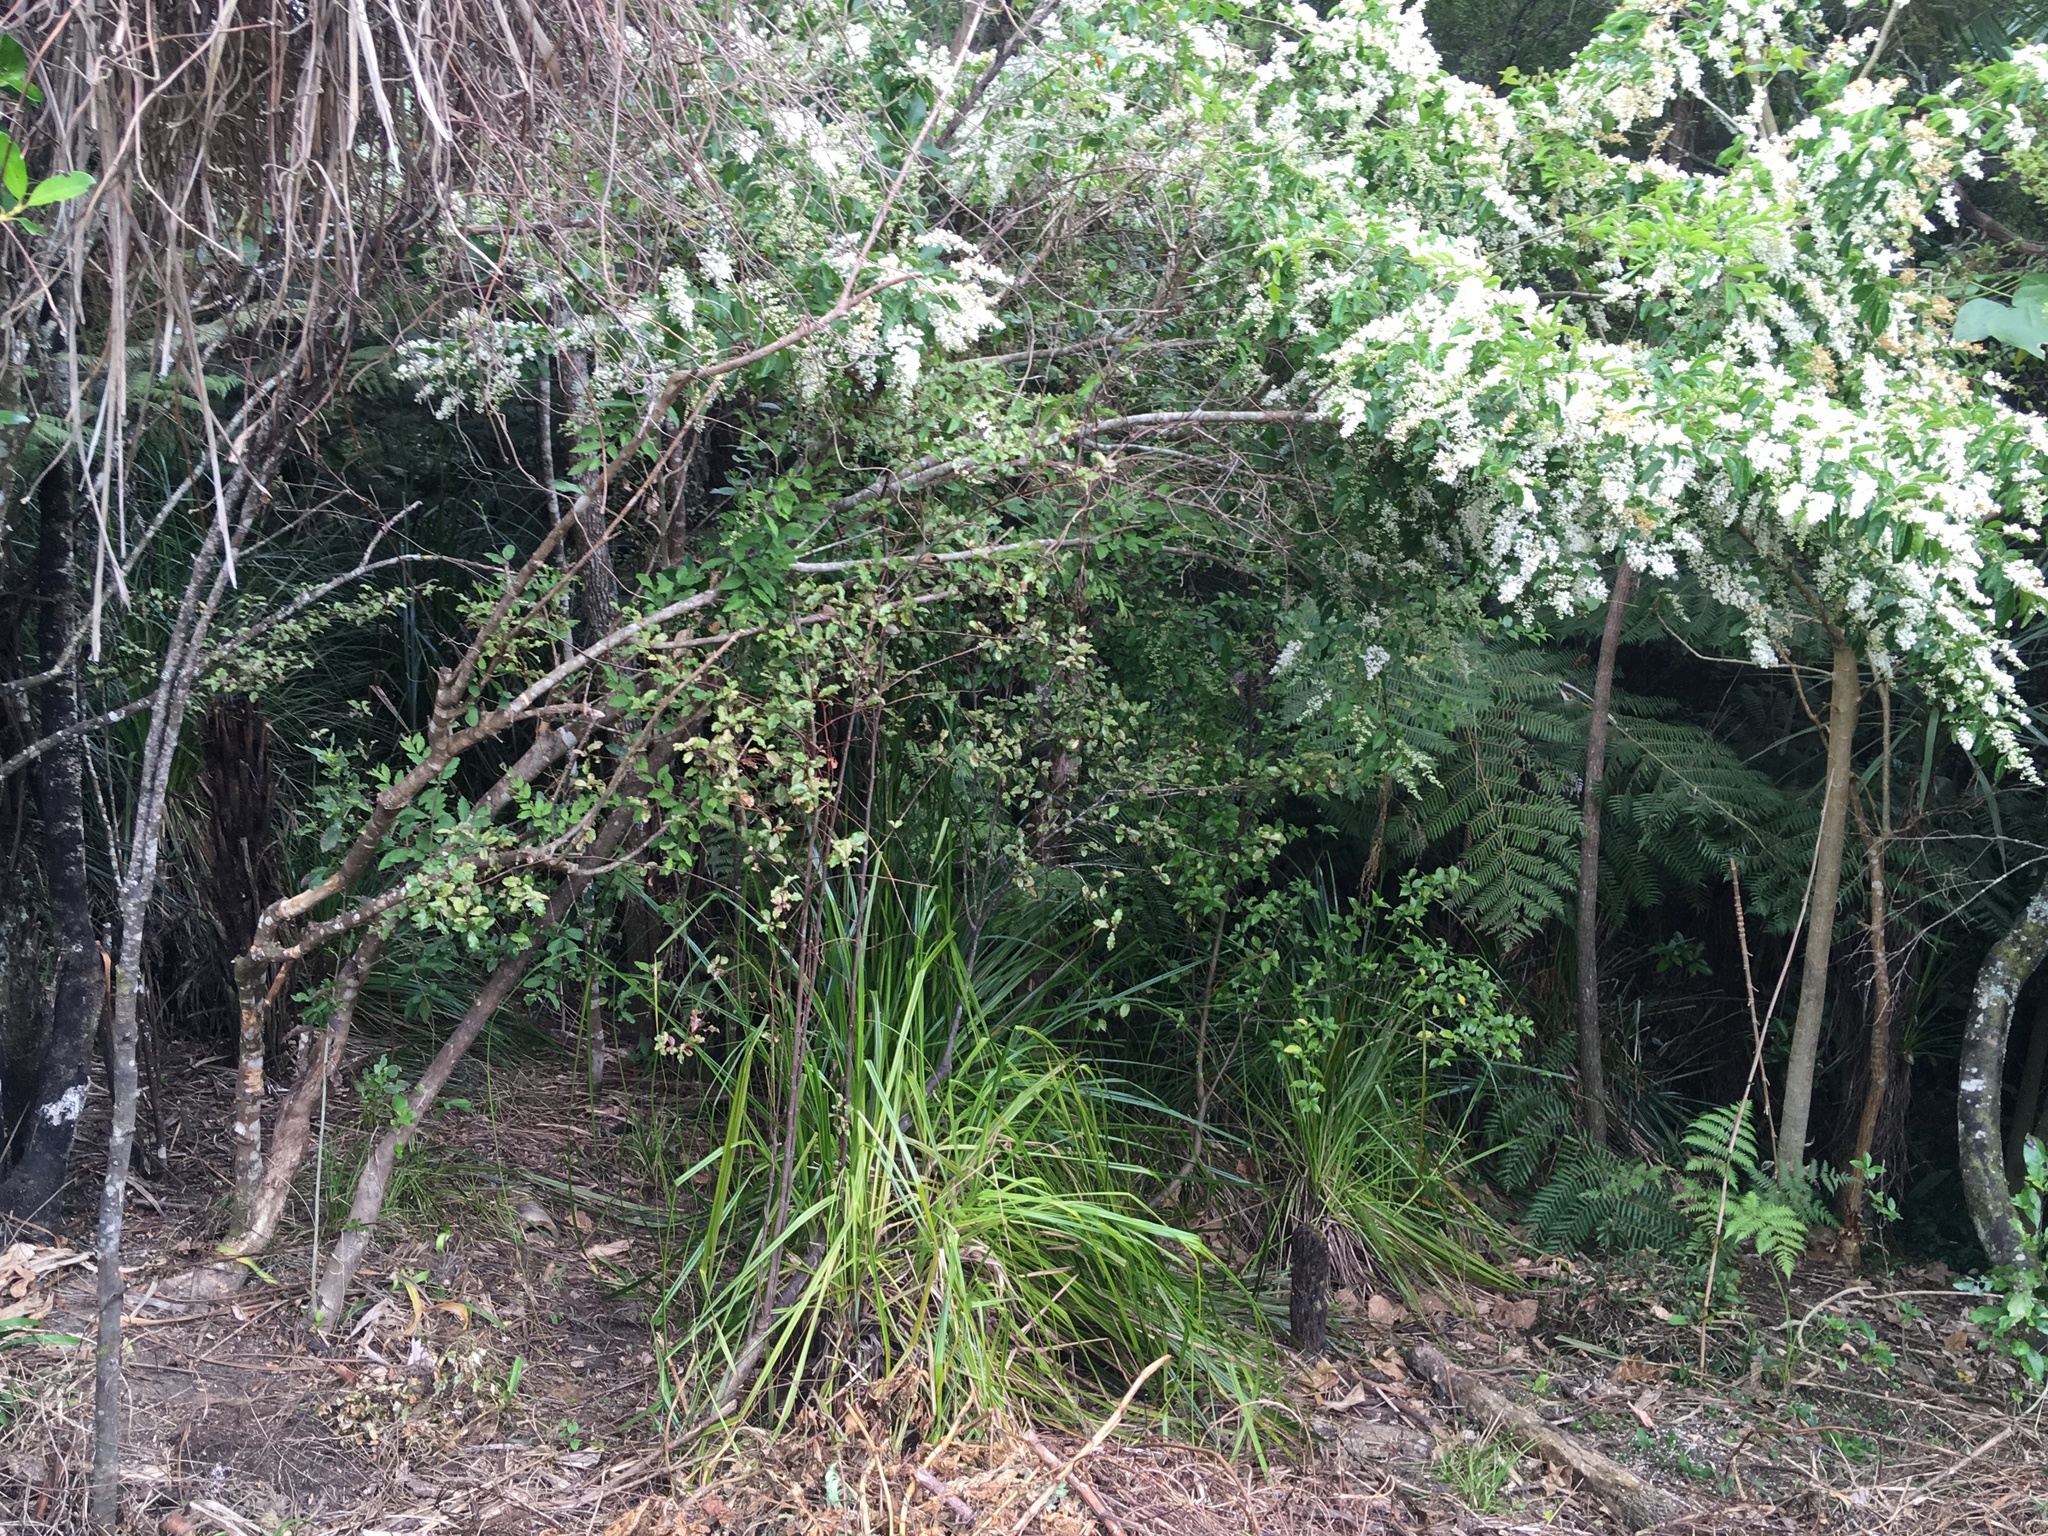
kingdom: Plantae
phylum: Tracheophyta
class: Magnoliopsida
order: Lamiales
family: Oleaceae
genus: Ligustrum
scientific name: Ligustrum sinense
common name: Chinese privet
